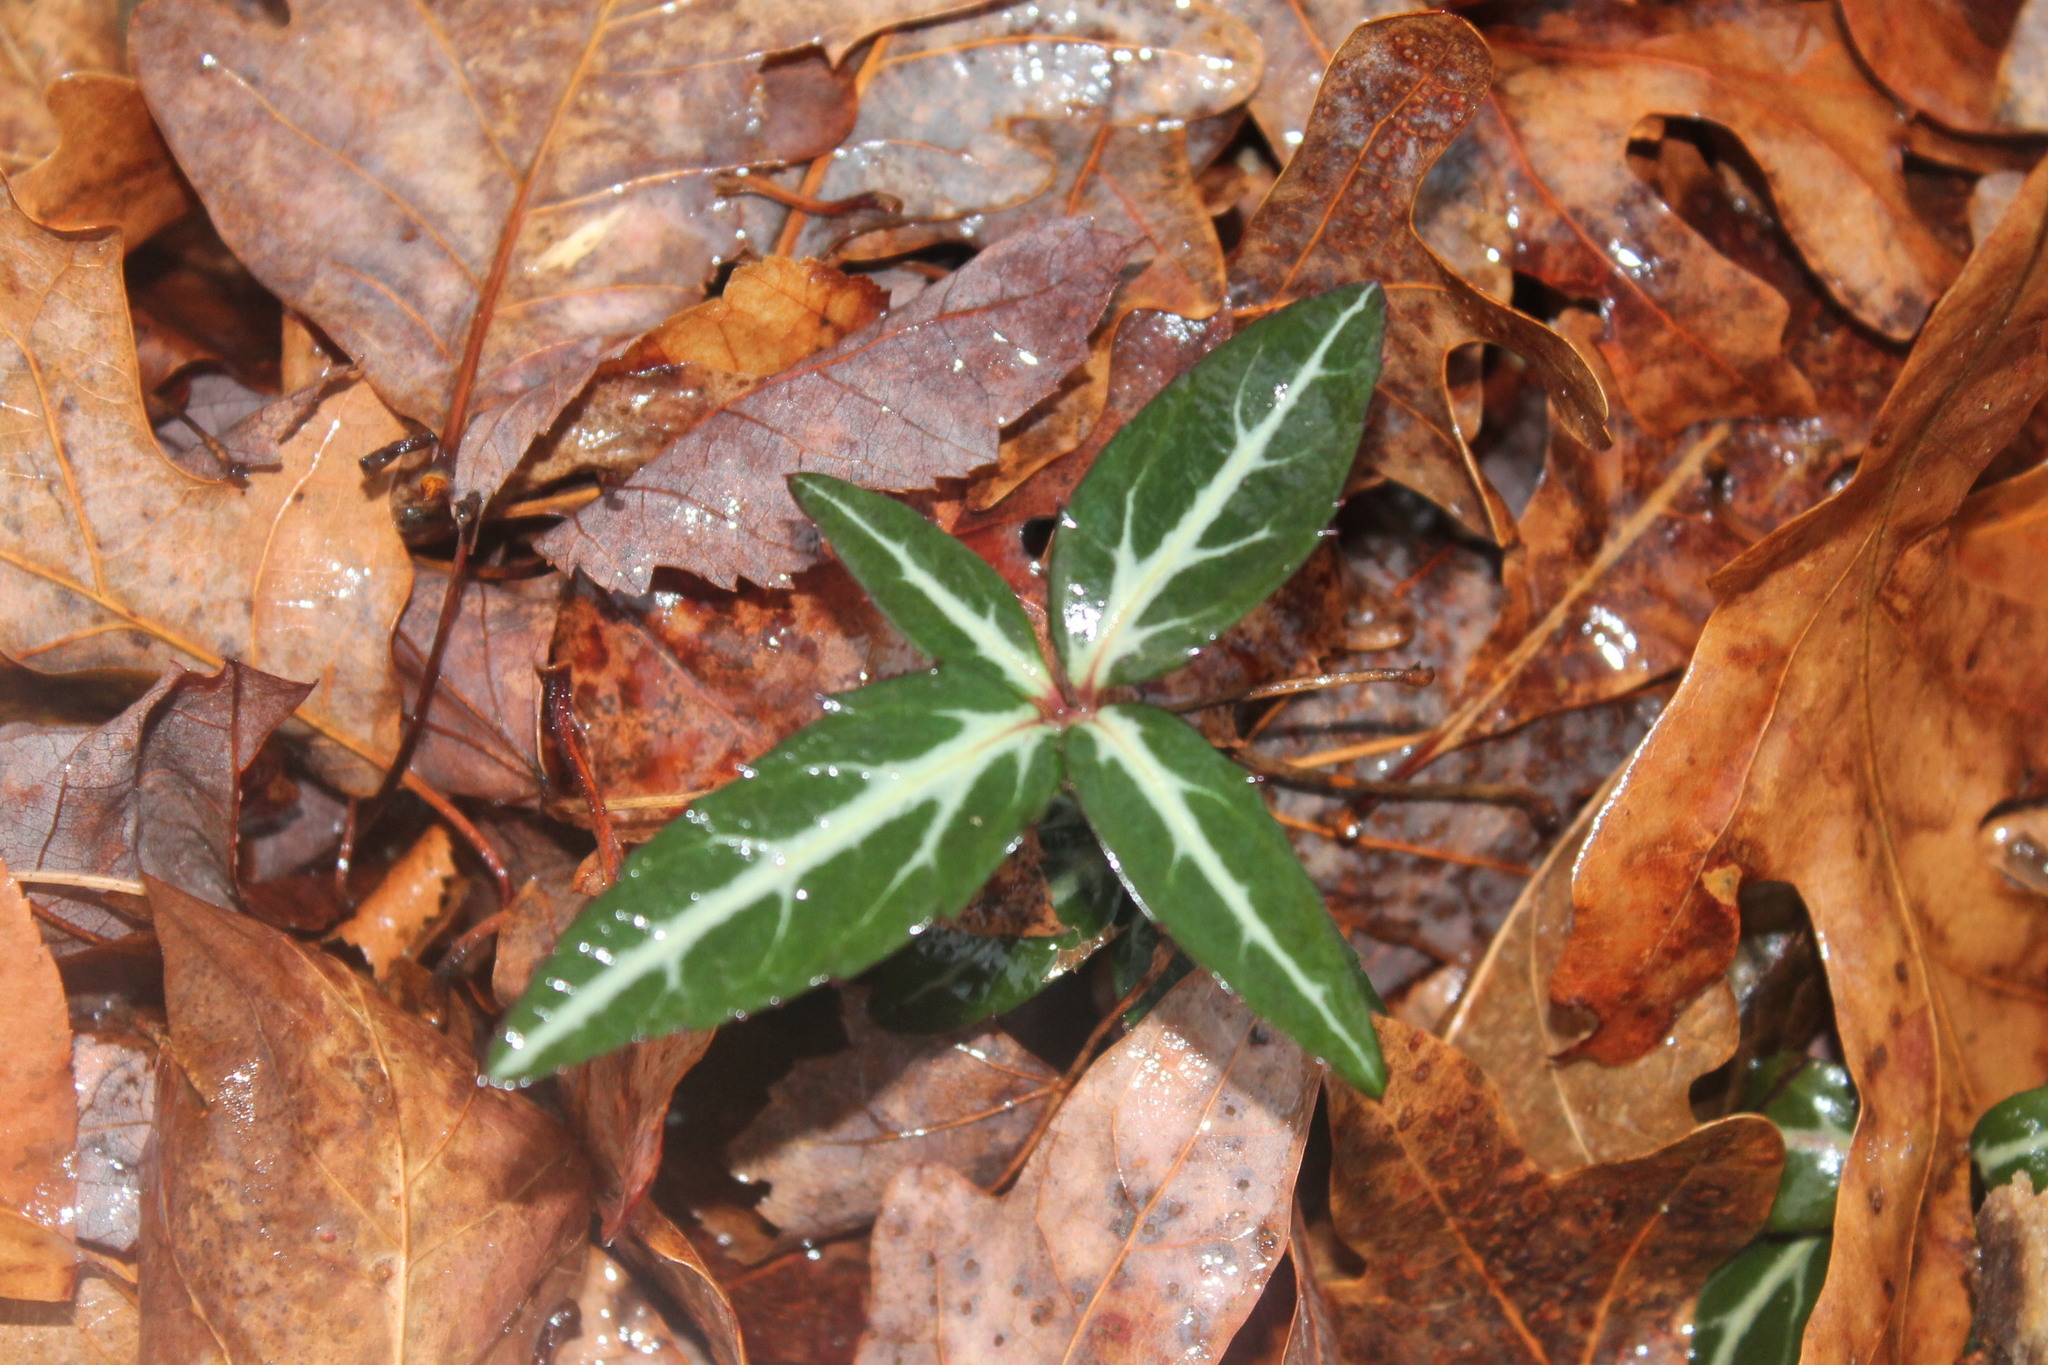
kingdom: Plantae
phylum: Tracheophyta
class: Magnoliopsida
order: Ericales
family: Ericaceae
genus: Chimaphila
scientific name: Chimaphila maculata
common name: Spotted pipsissewa
